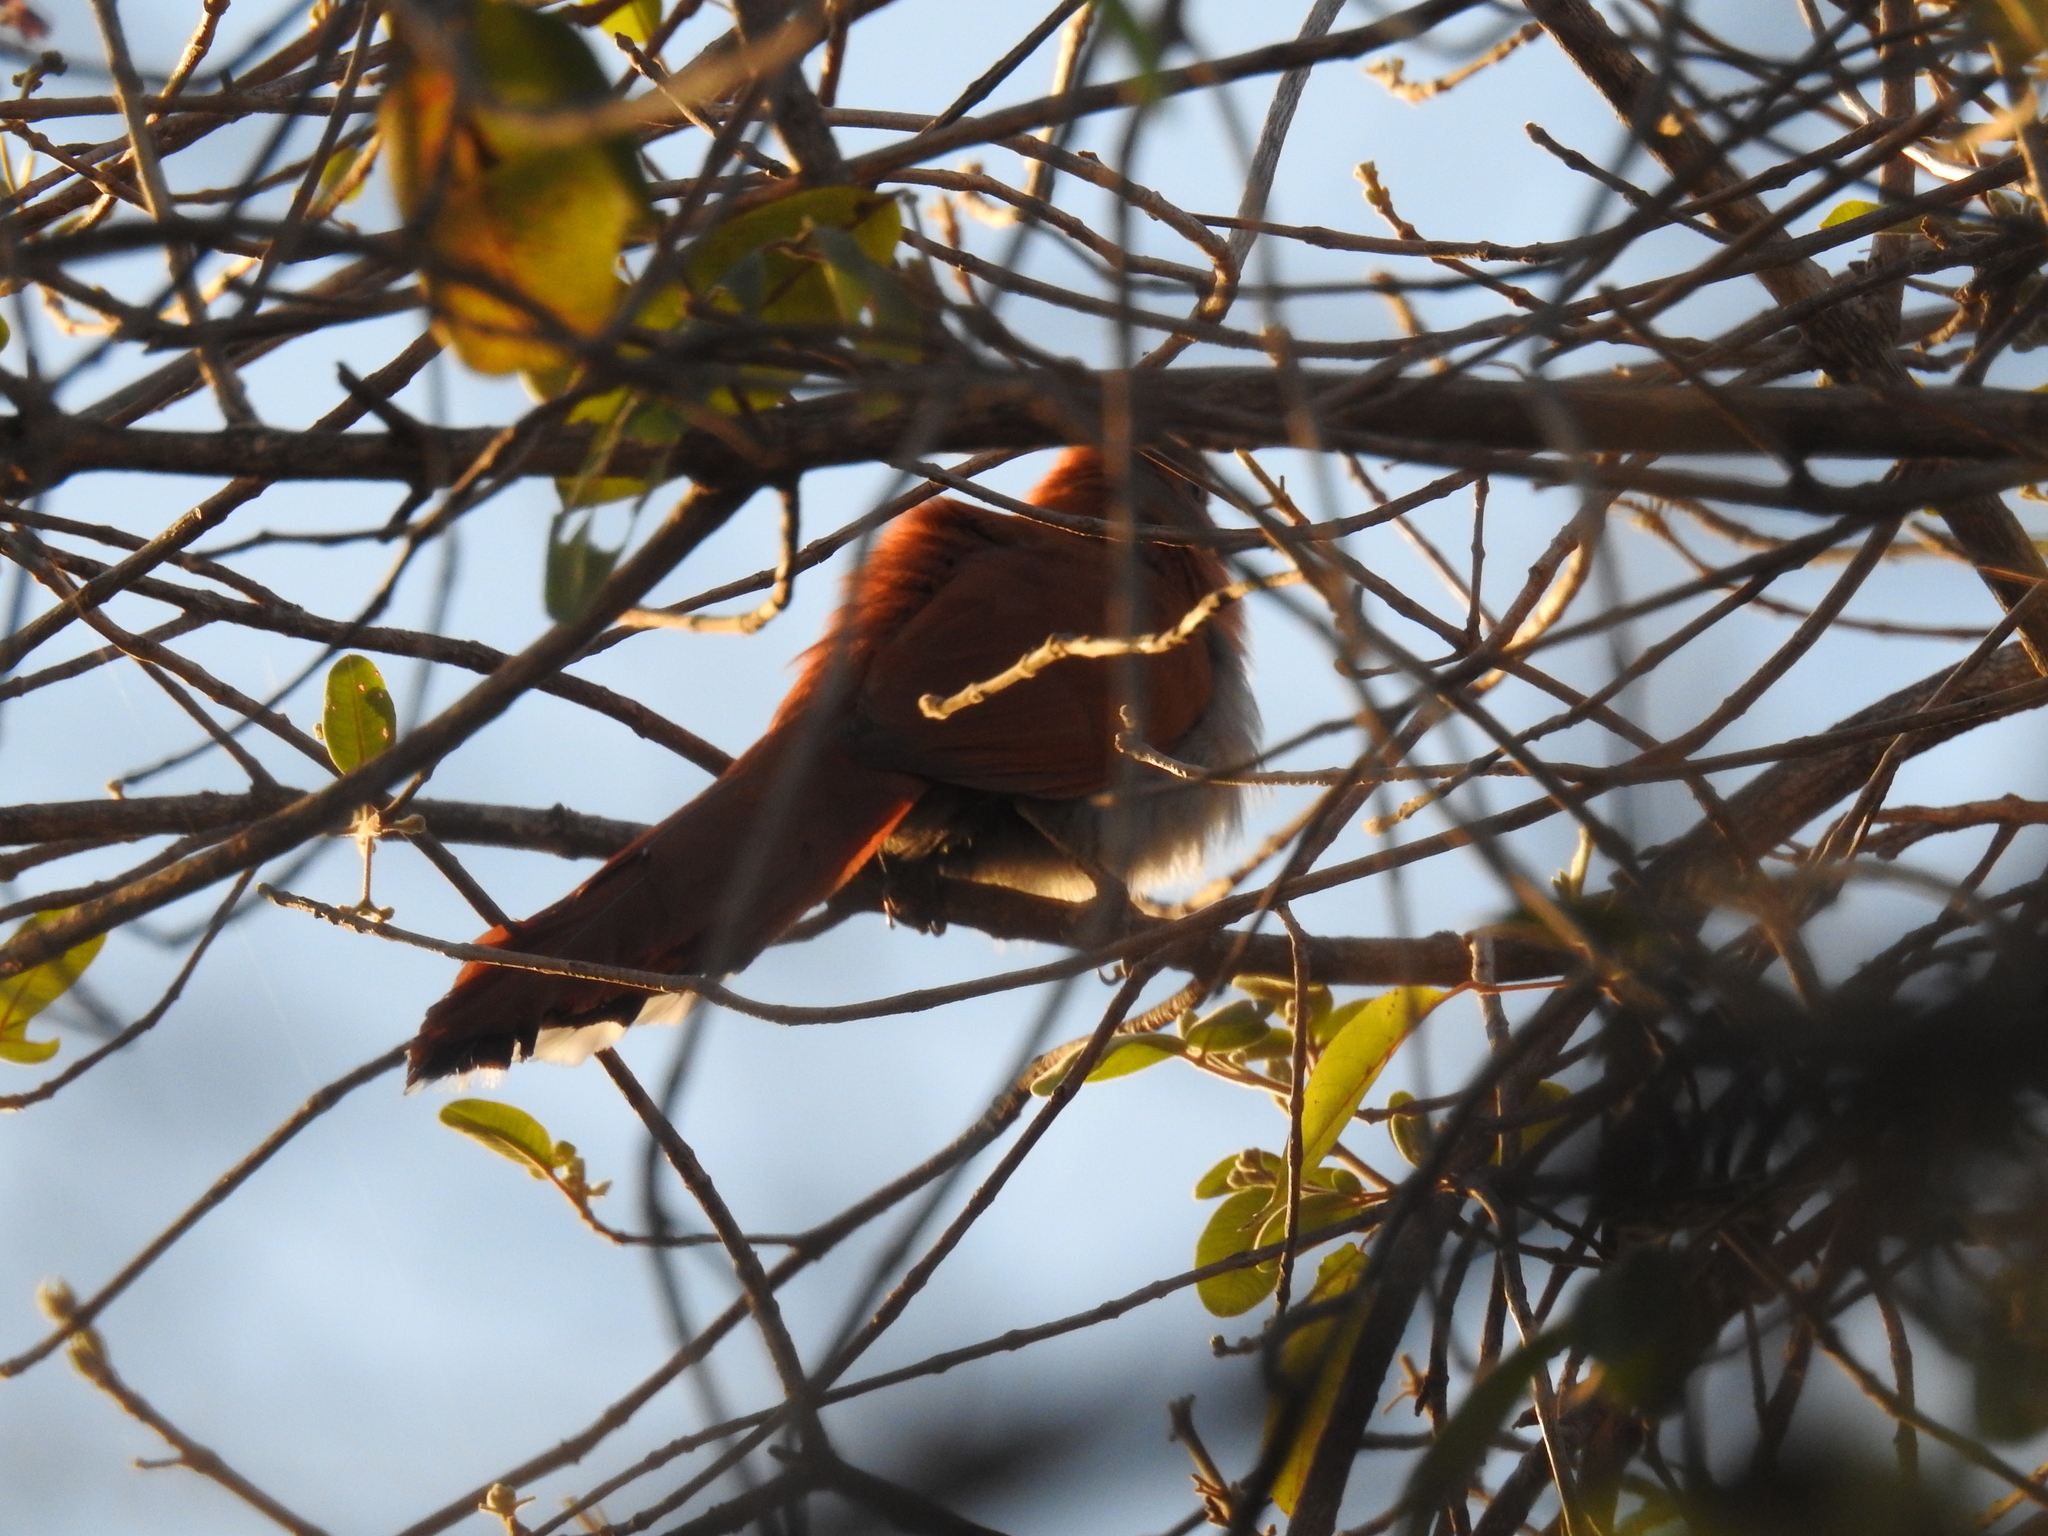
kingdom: Animalia
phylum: Chordata
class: Aves
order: Cuculiformes
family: Cuculidae
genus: Piaya
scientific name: Piaya cayana
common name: Squirrel cuckoo
